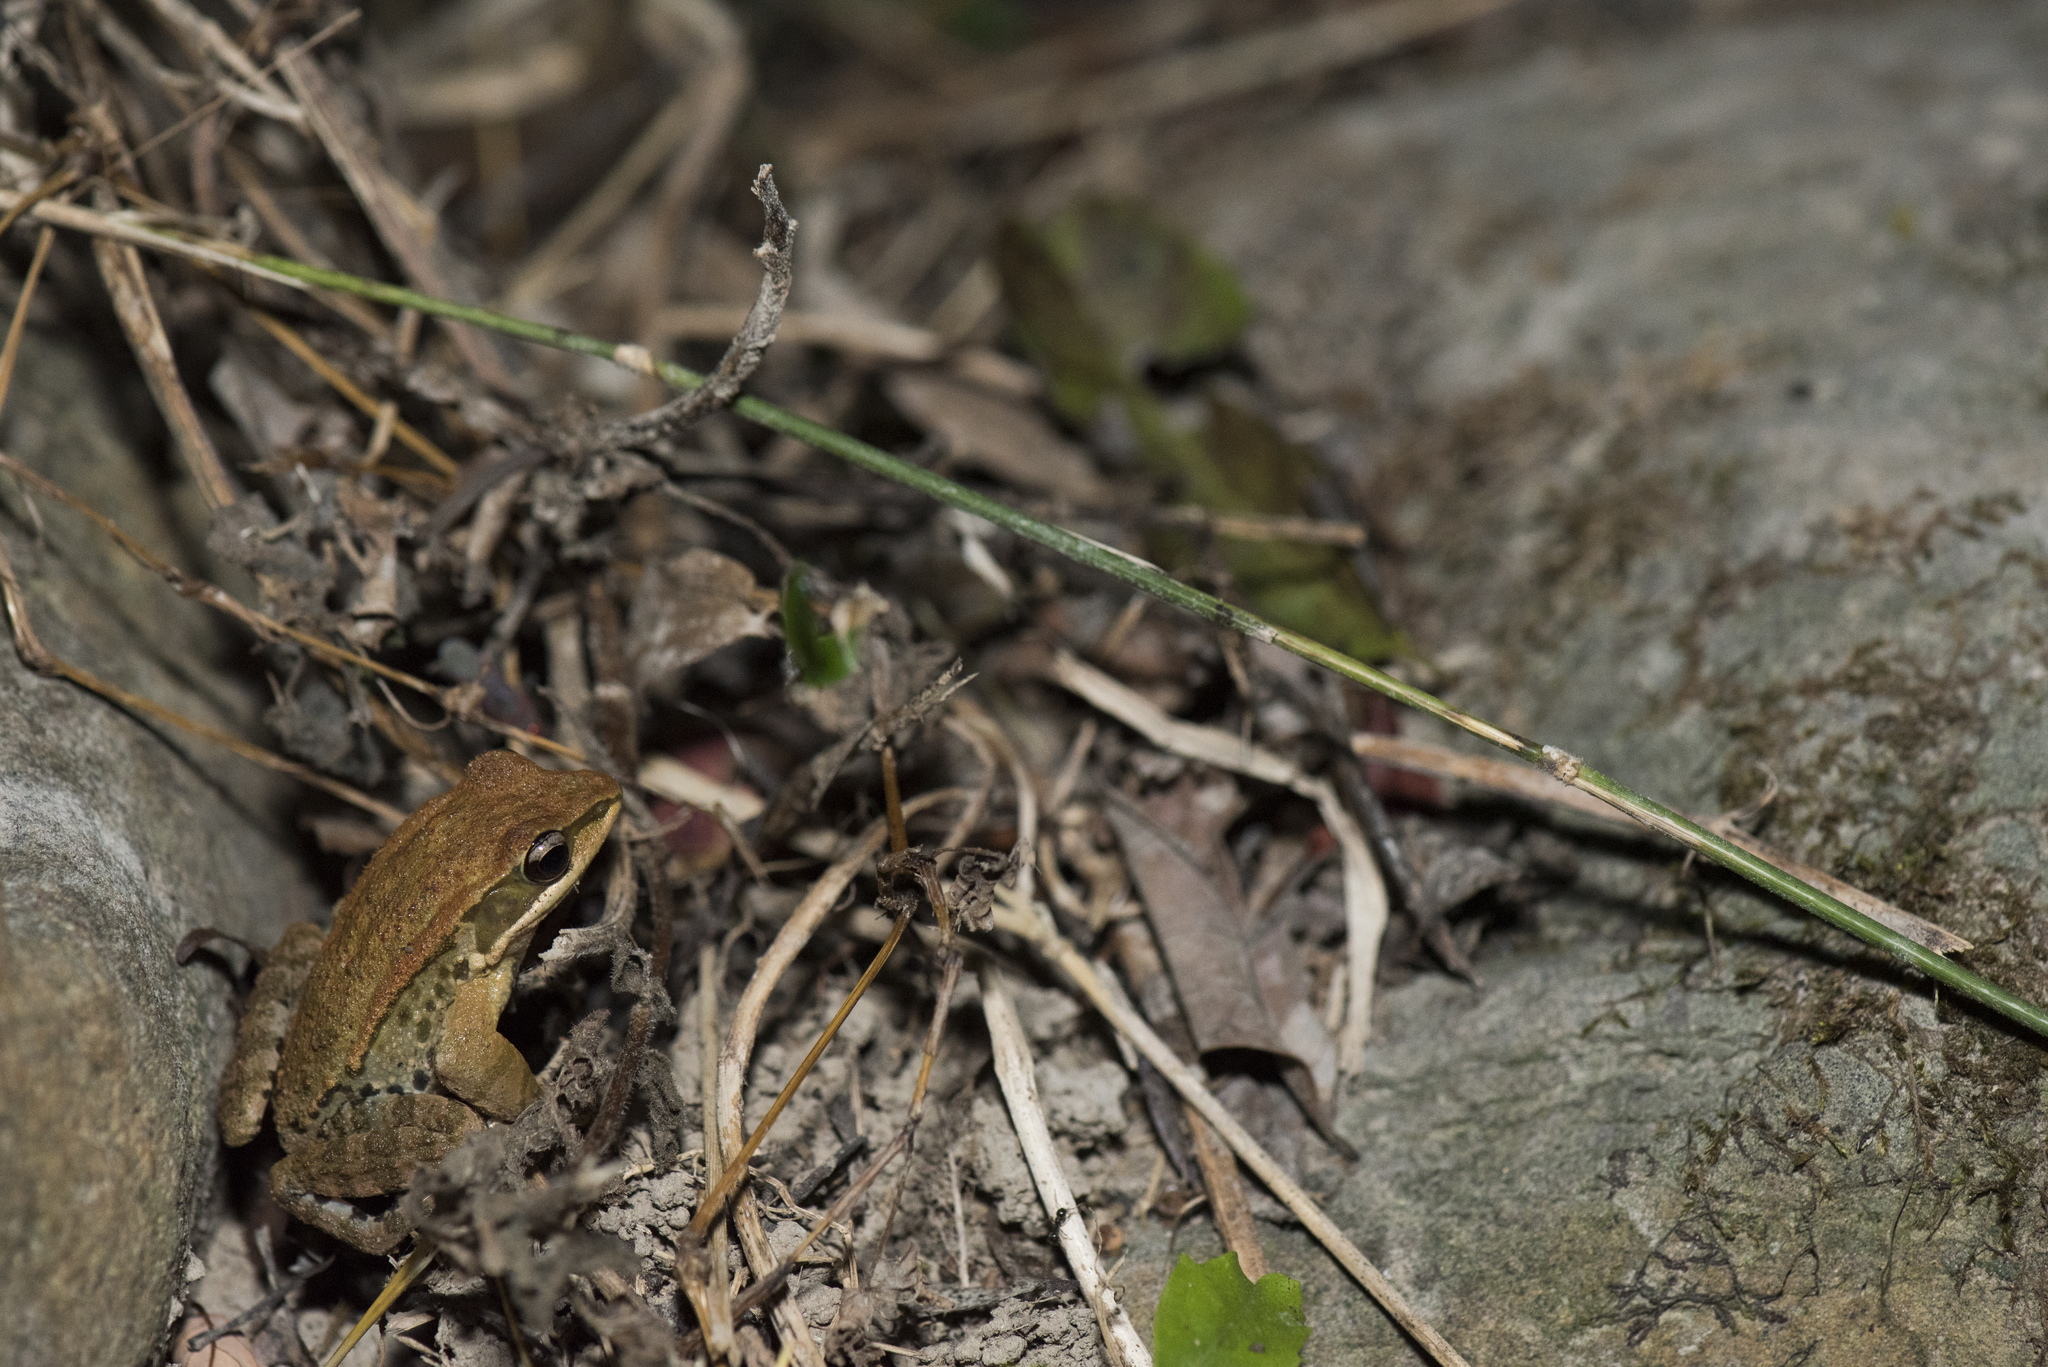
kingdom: Animalia
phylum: Chordata
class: Amphibia
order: Anura
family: Ranidae
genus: Hylarana
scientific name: Hylarana latouchii
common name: Broad-folded frog
